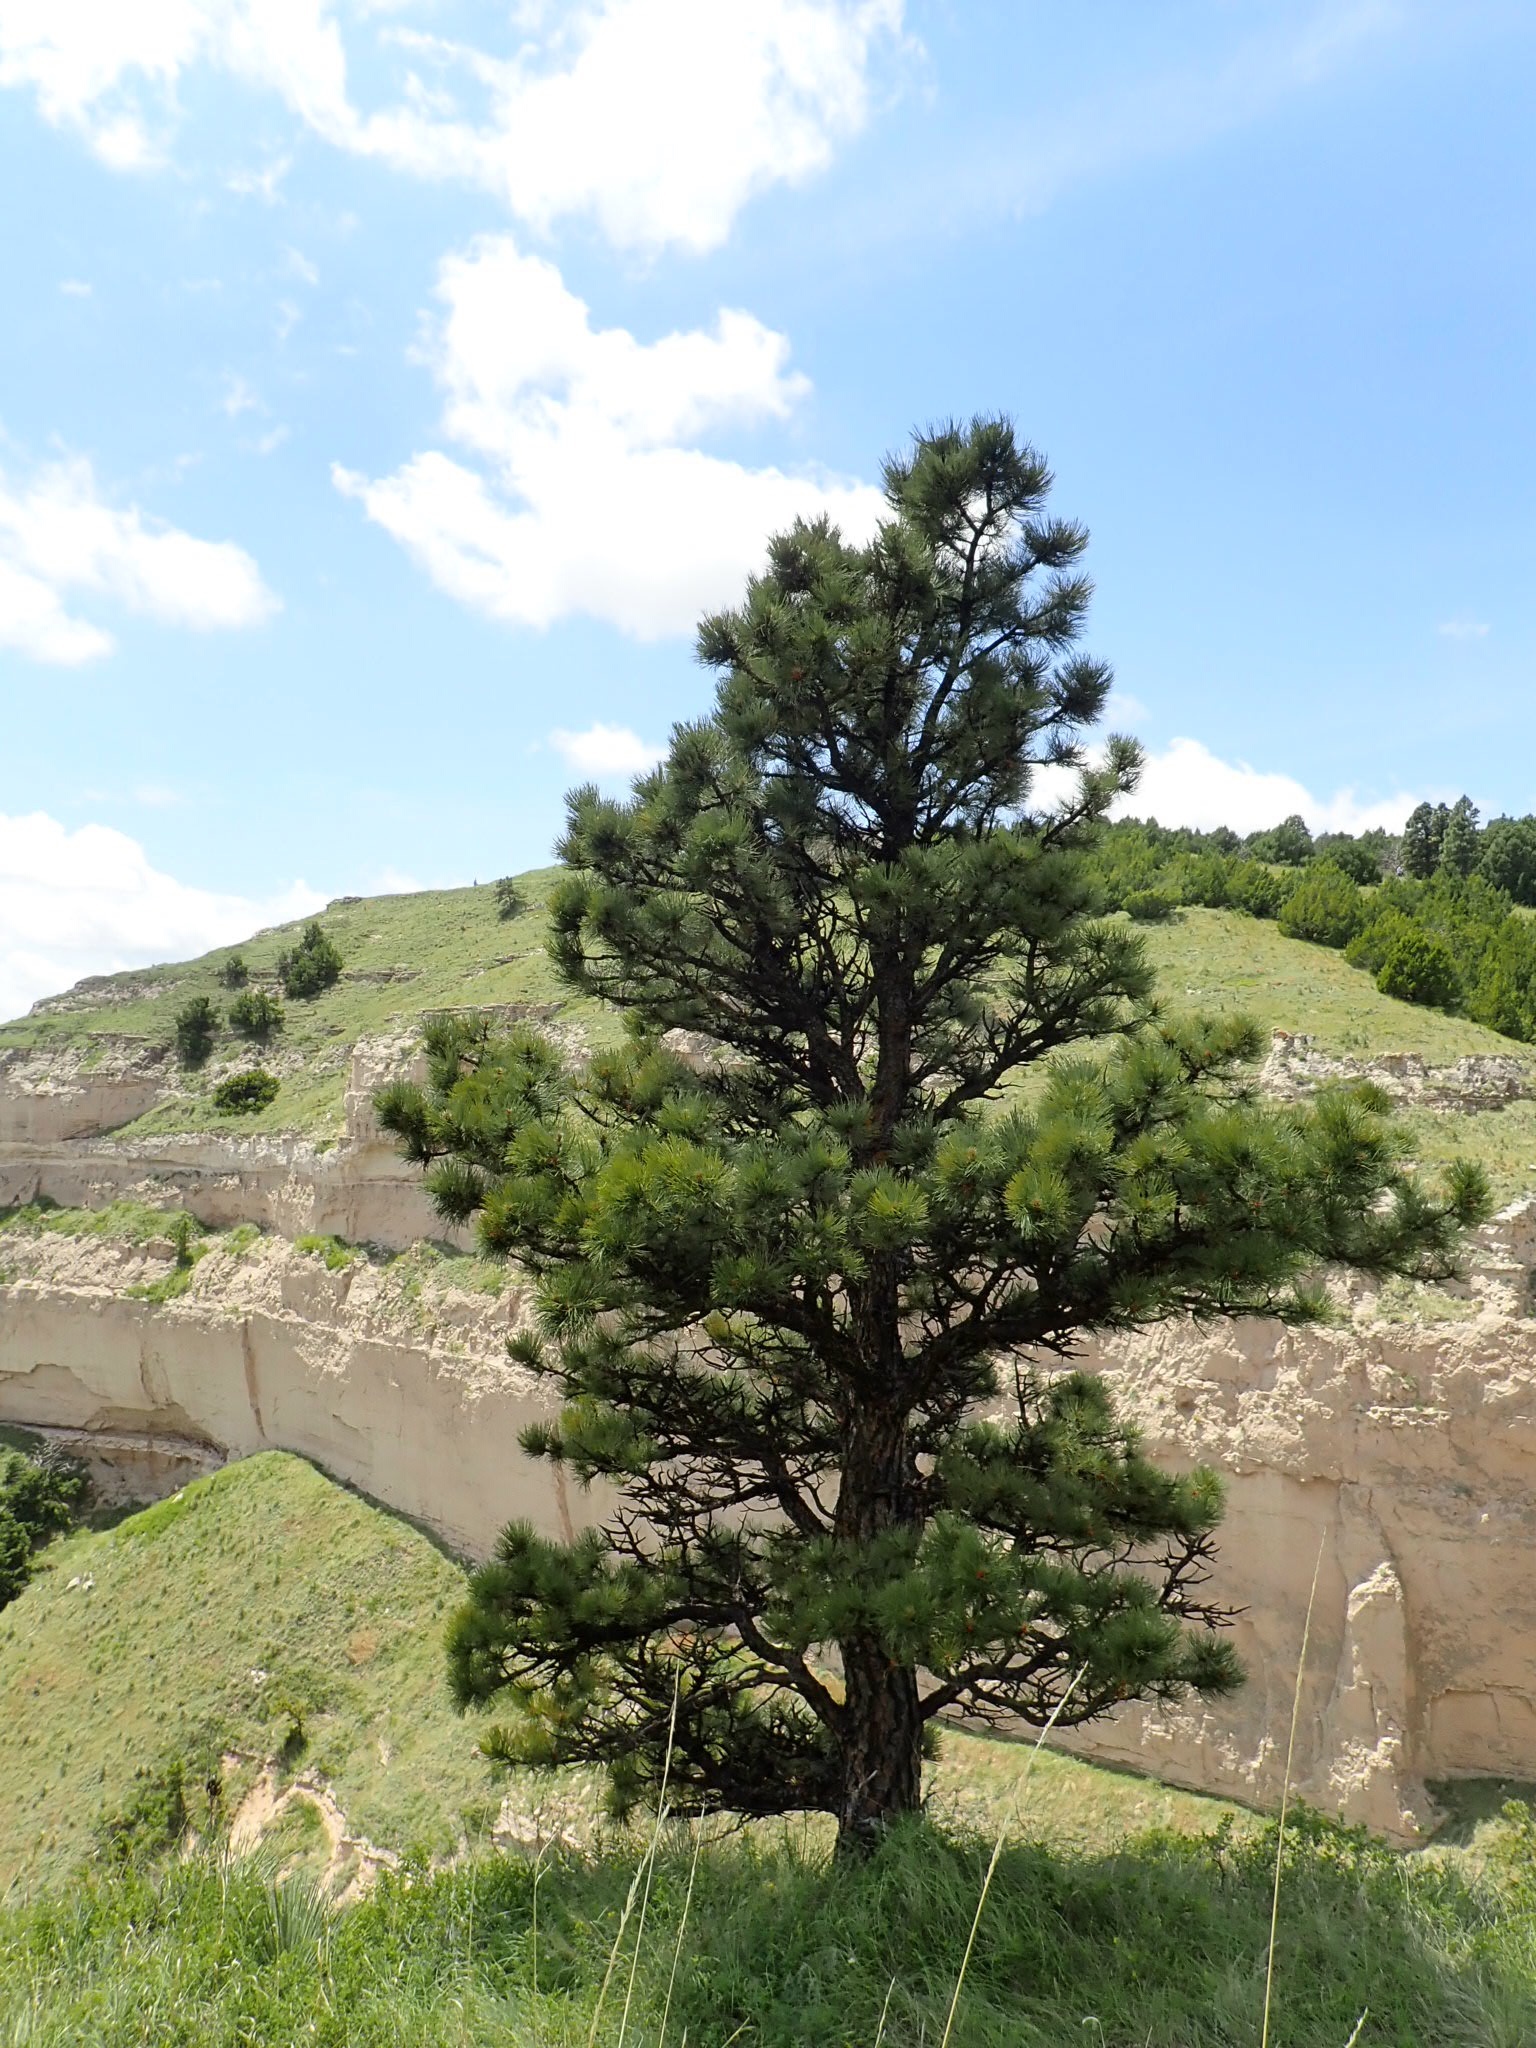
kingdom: Plantae
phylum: Tracheophyta
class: Pinopsida
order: Pinales
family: Pinaceae
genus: Pinus
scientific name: Pinus ponderosa
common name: Western yellow-pine
